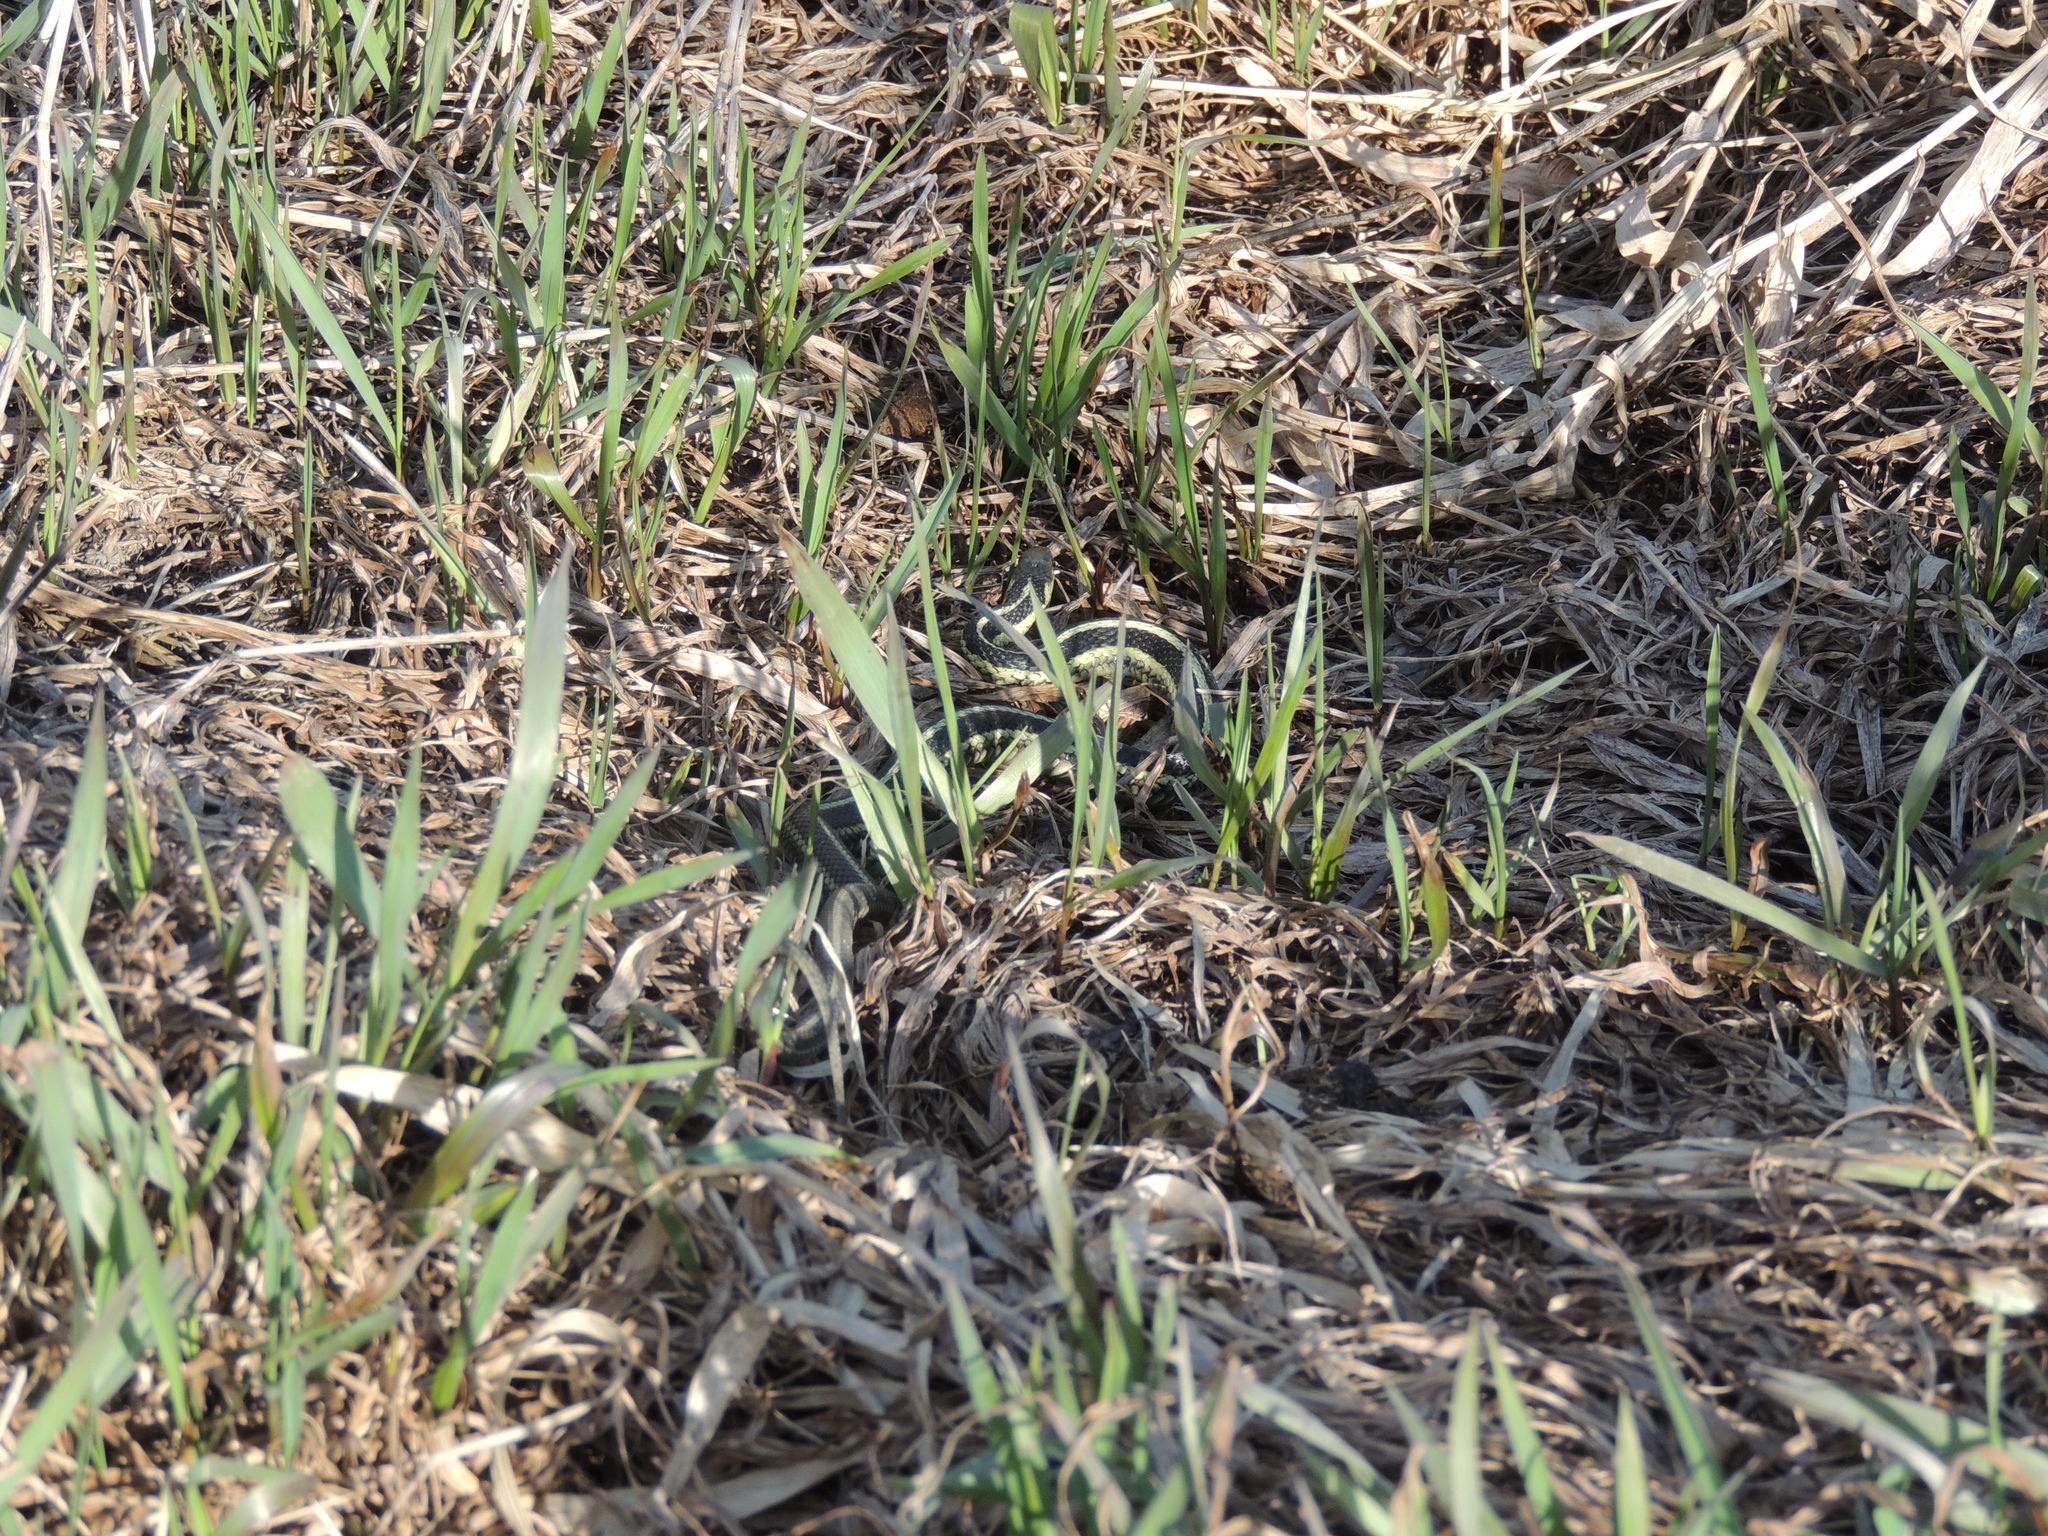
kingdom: Animalia
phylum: Chordata
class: Squamata
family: Colubridae
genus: Thamnophis
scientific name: Thamnophis sirtalis
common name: Common garter snake
